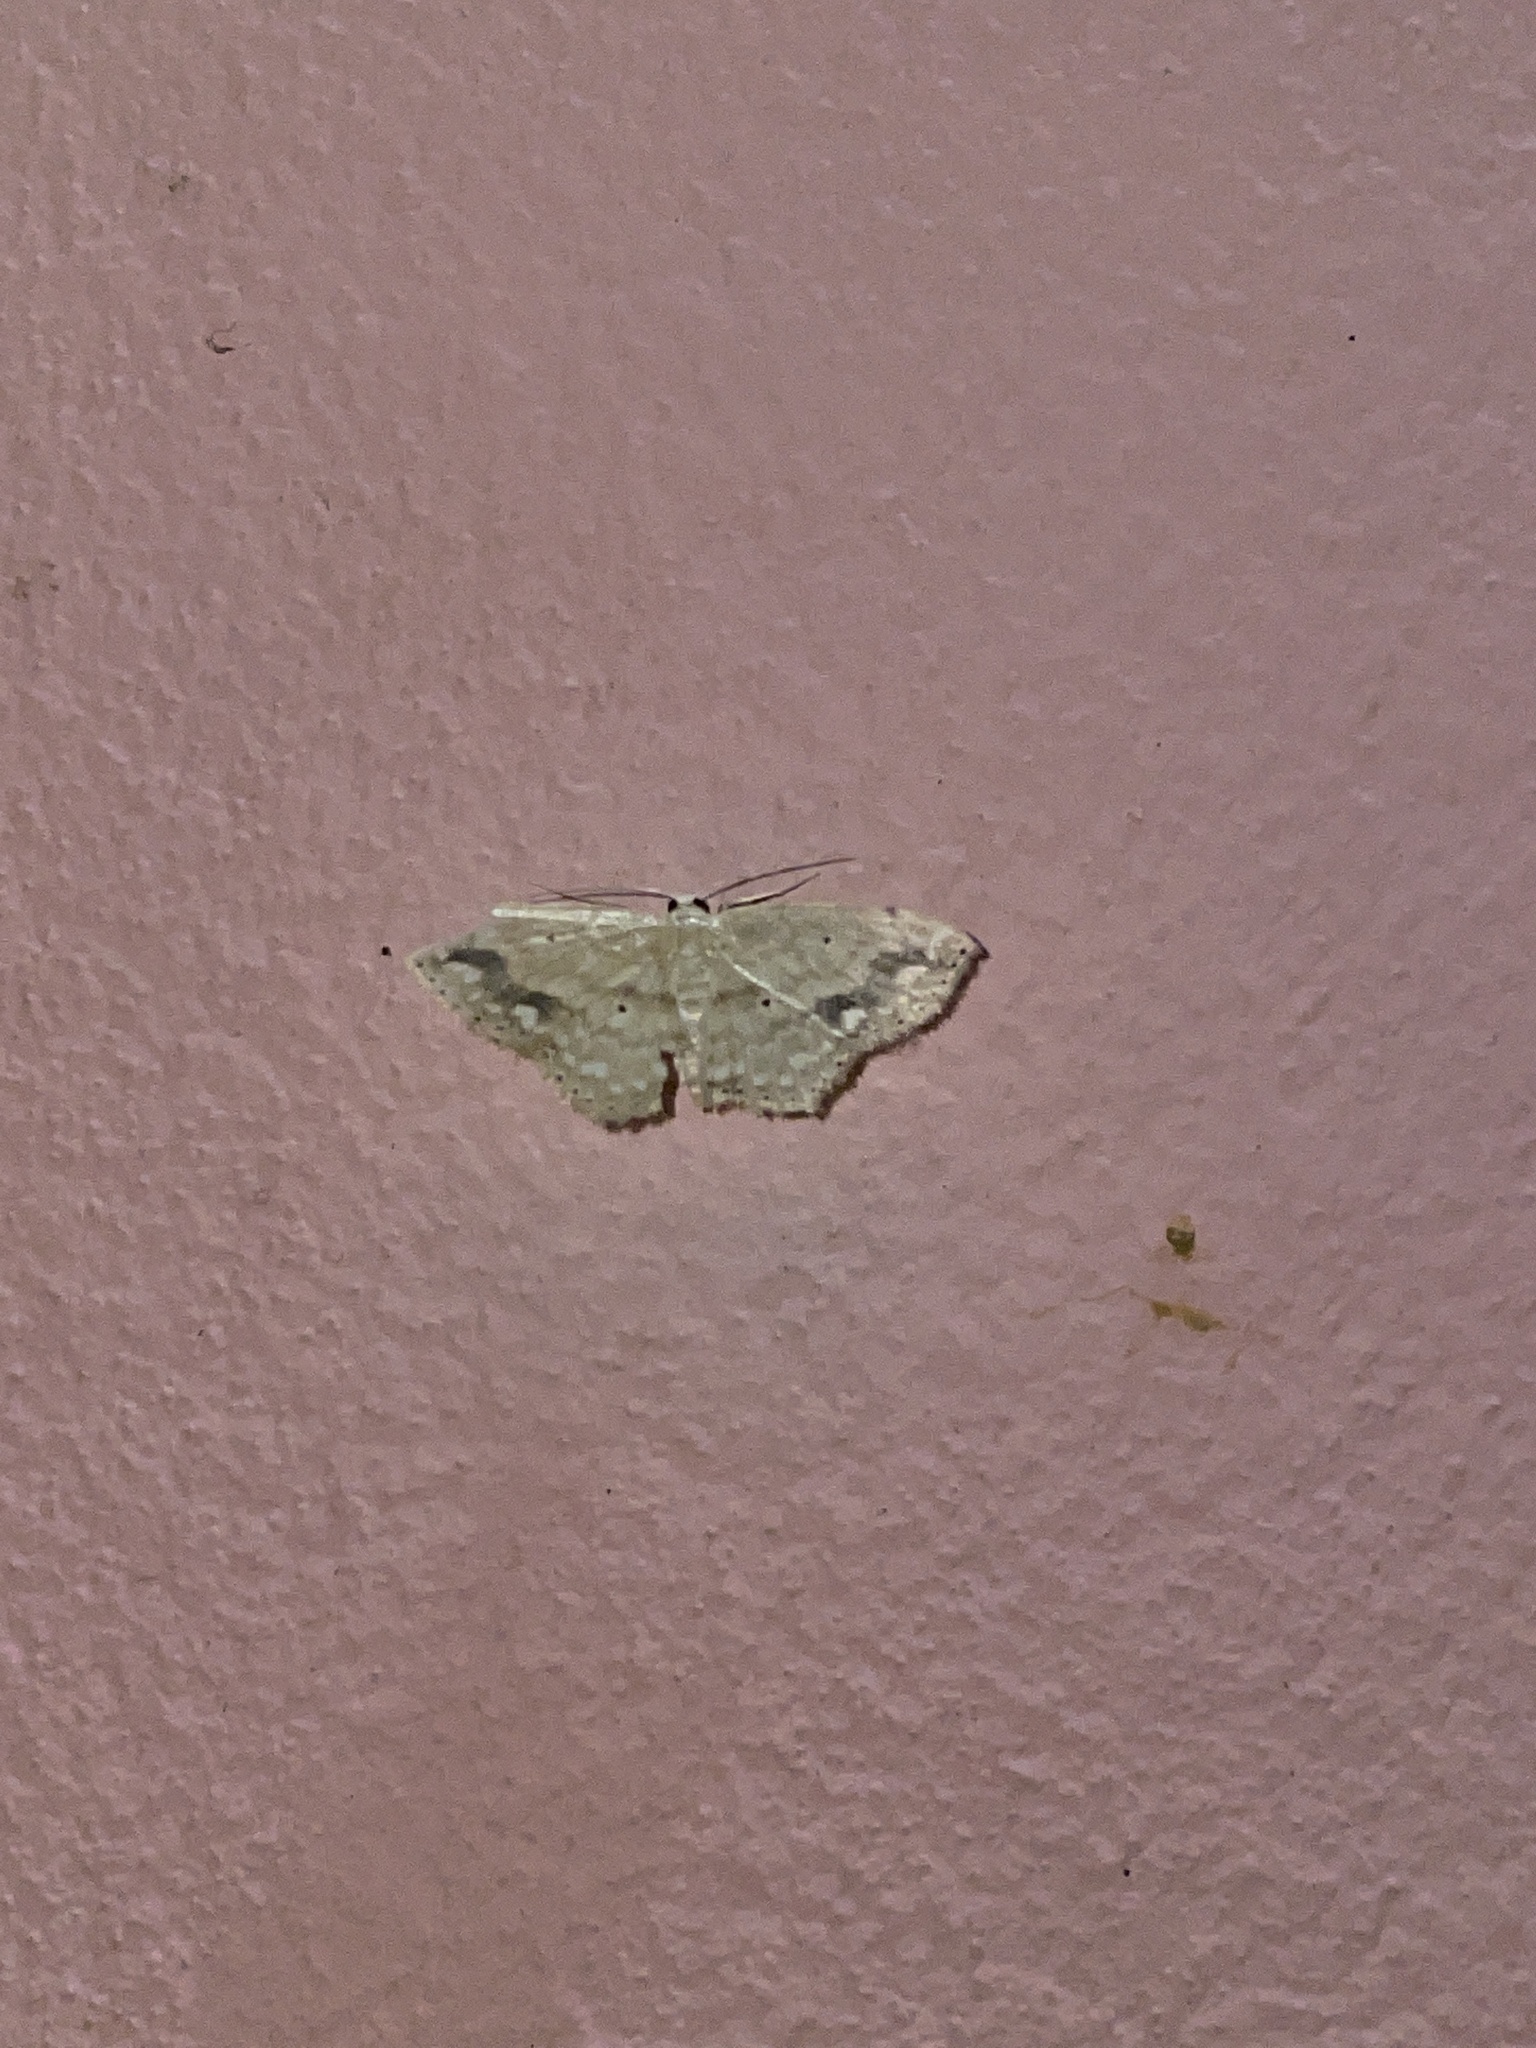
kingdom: Animalia
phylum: Arthropoda
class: Insecta
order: Lepidoptera
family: Geometridae
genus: Scopula
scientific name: Scopula subquadrata
